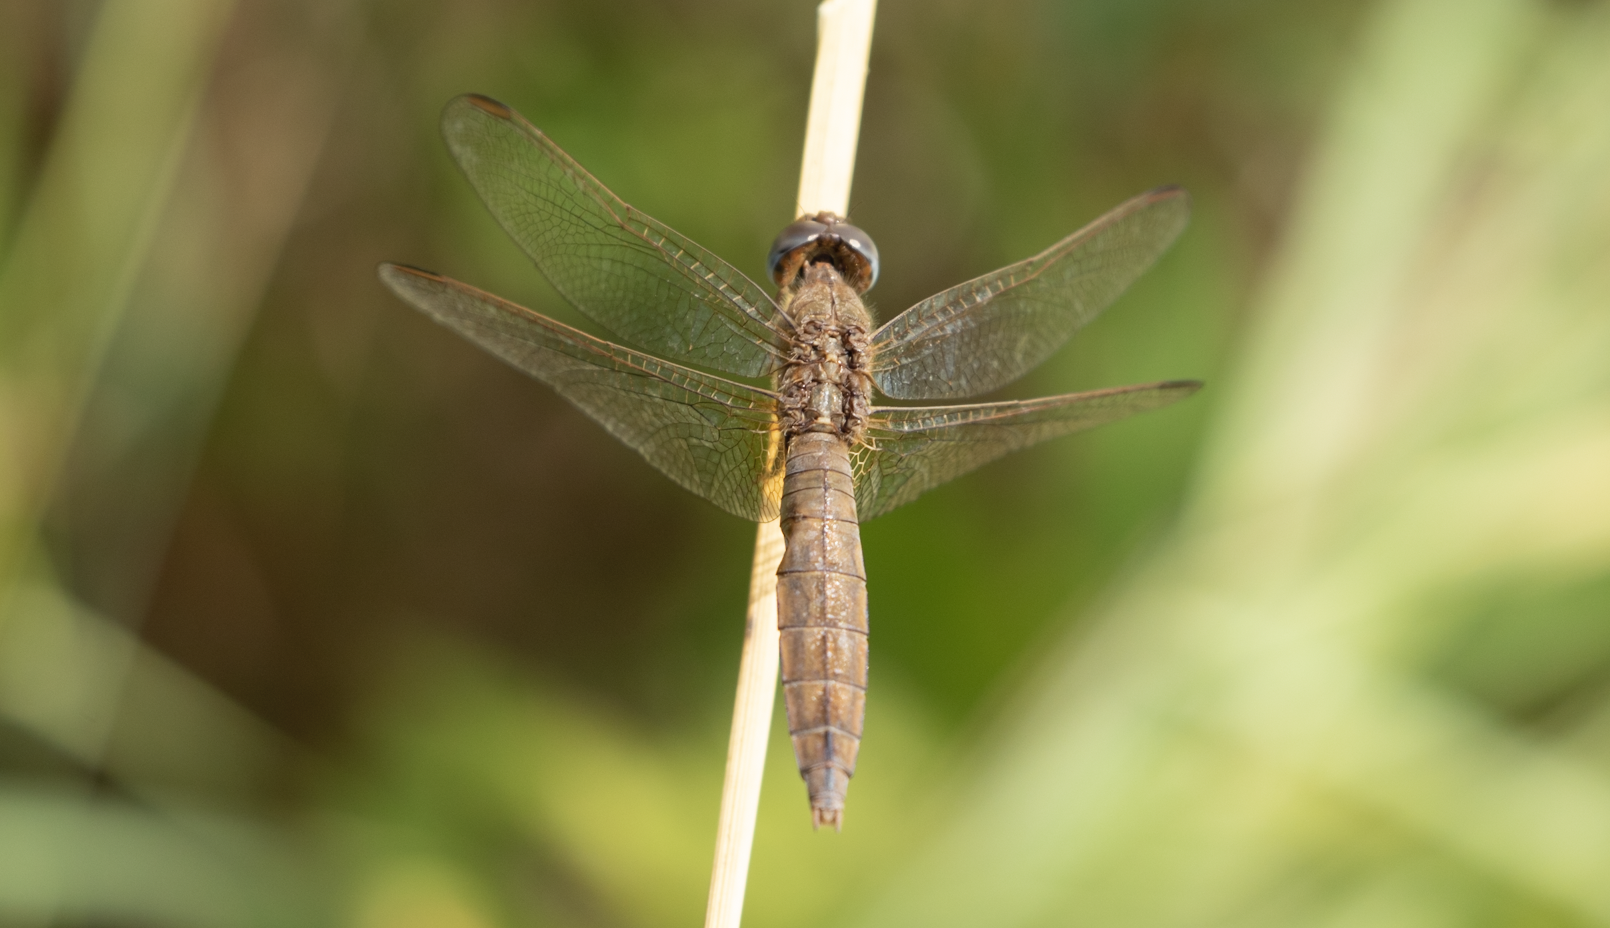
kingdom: Animalia
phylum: Arthropoda
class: Insecta
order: Odonata
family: Libellulidae
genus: Crocothemis
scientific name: Crocothemis erythraea
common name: Scarlet dragonfly
